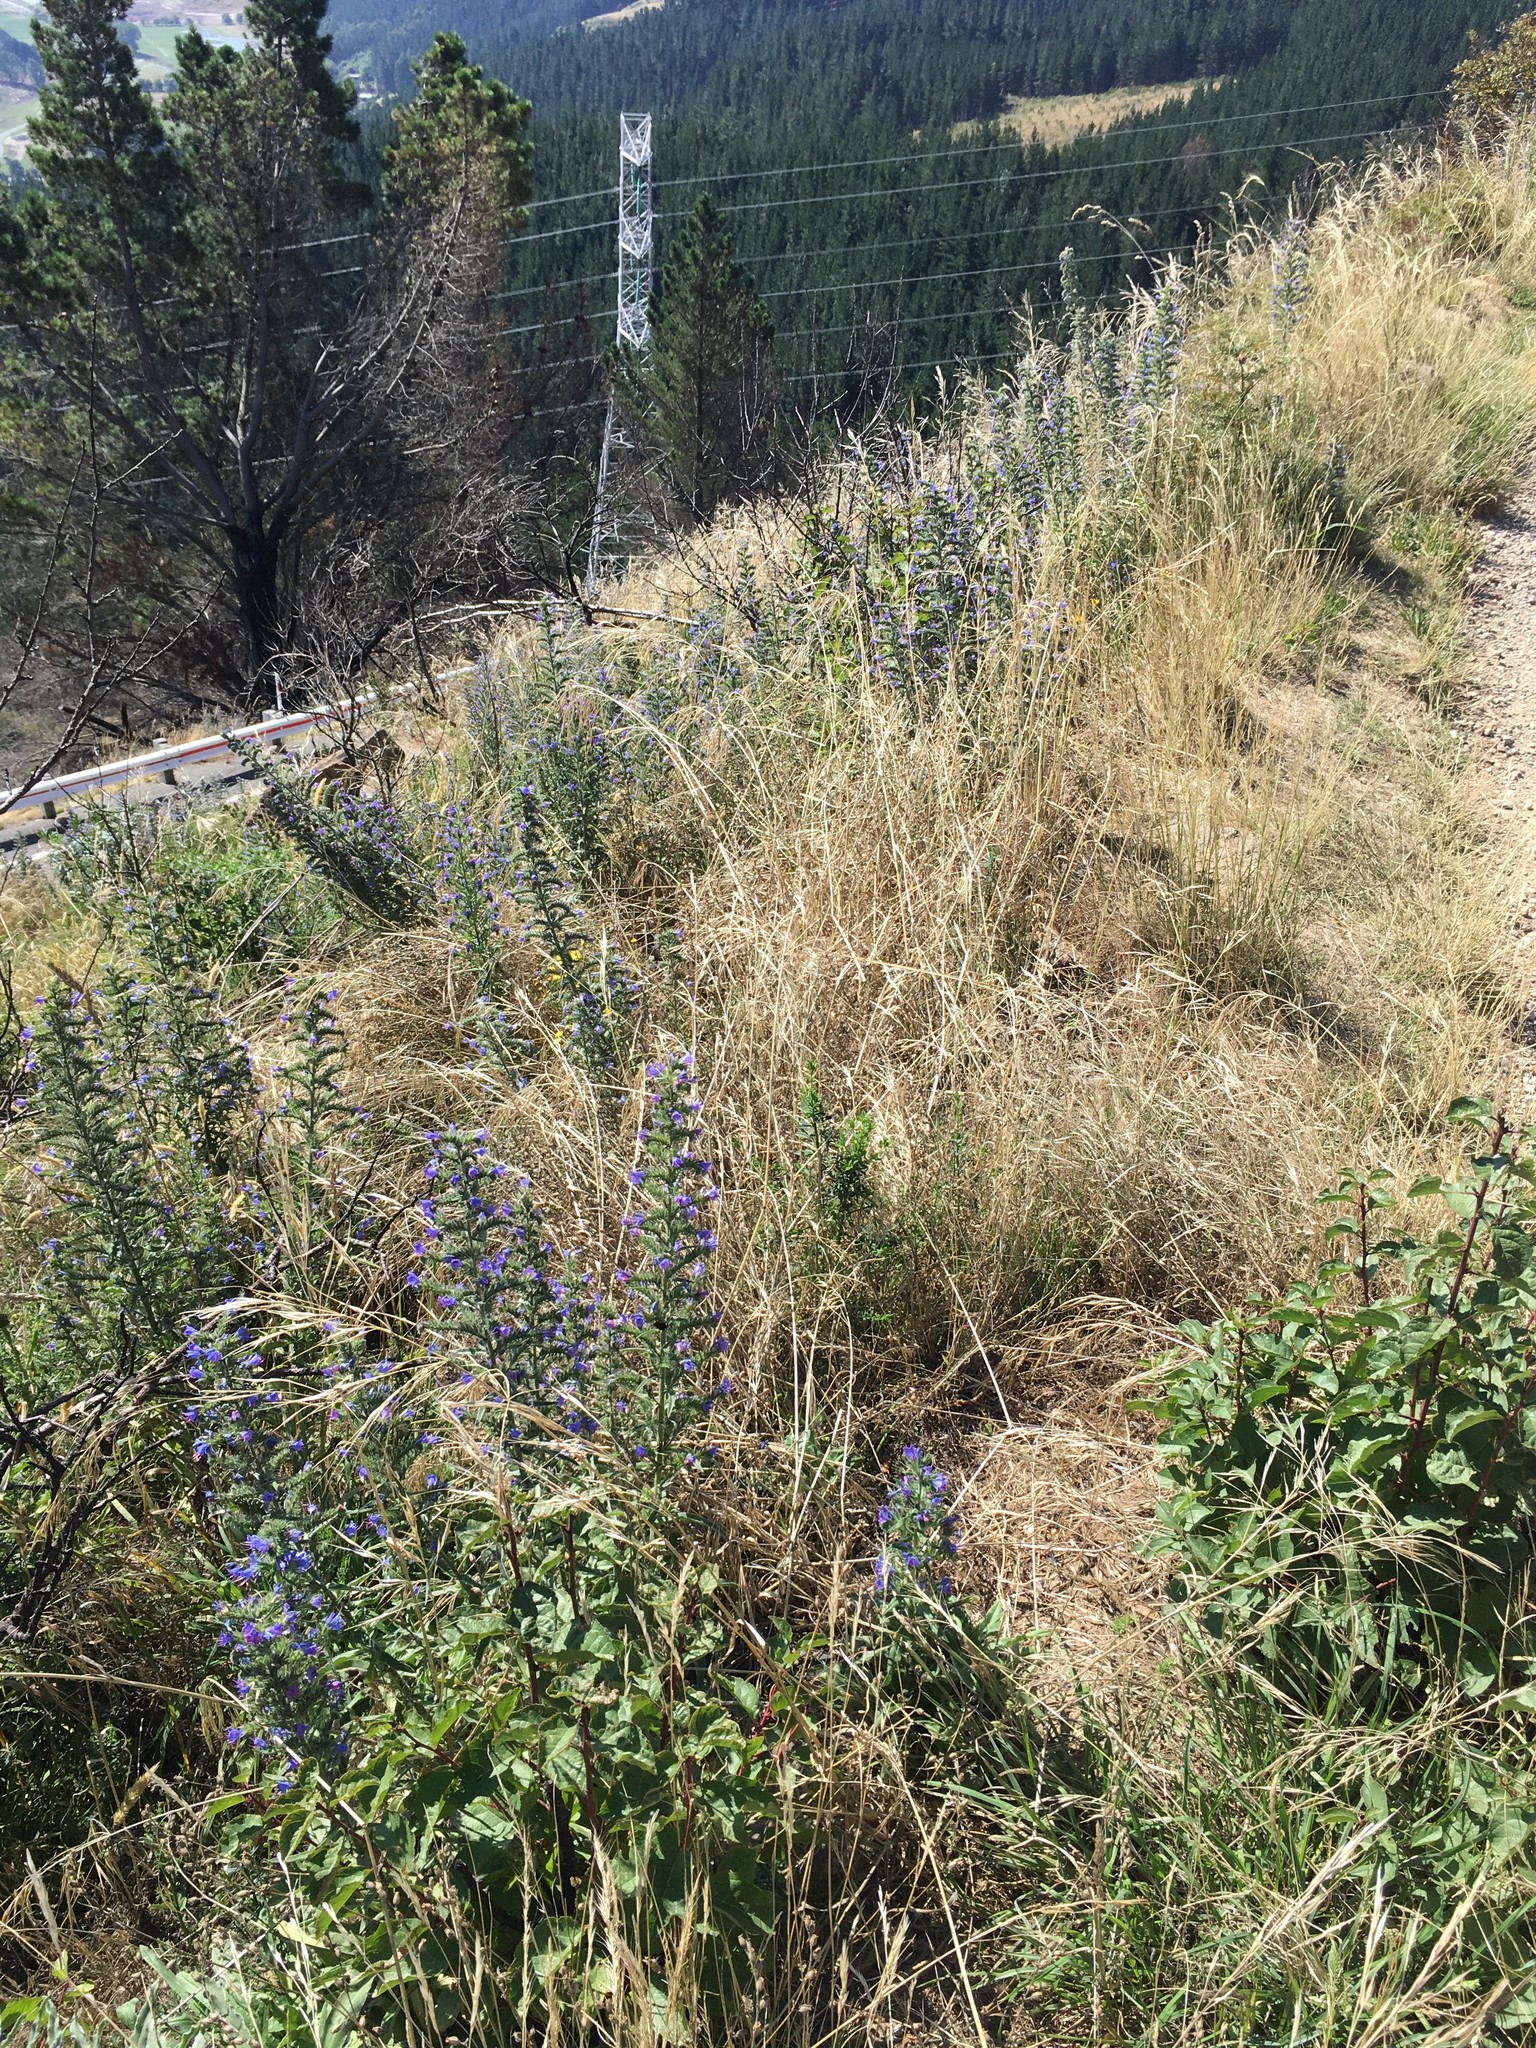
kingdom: Plantae
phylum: Tracheophyta
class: Magnoliopsida
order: Boraginales
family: Boraginaceae
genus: Echium
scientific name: Echium vulgare
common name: Common viper's bugloss
